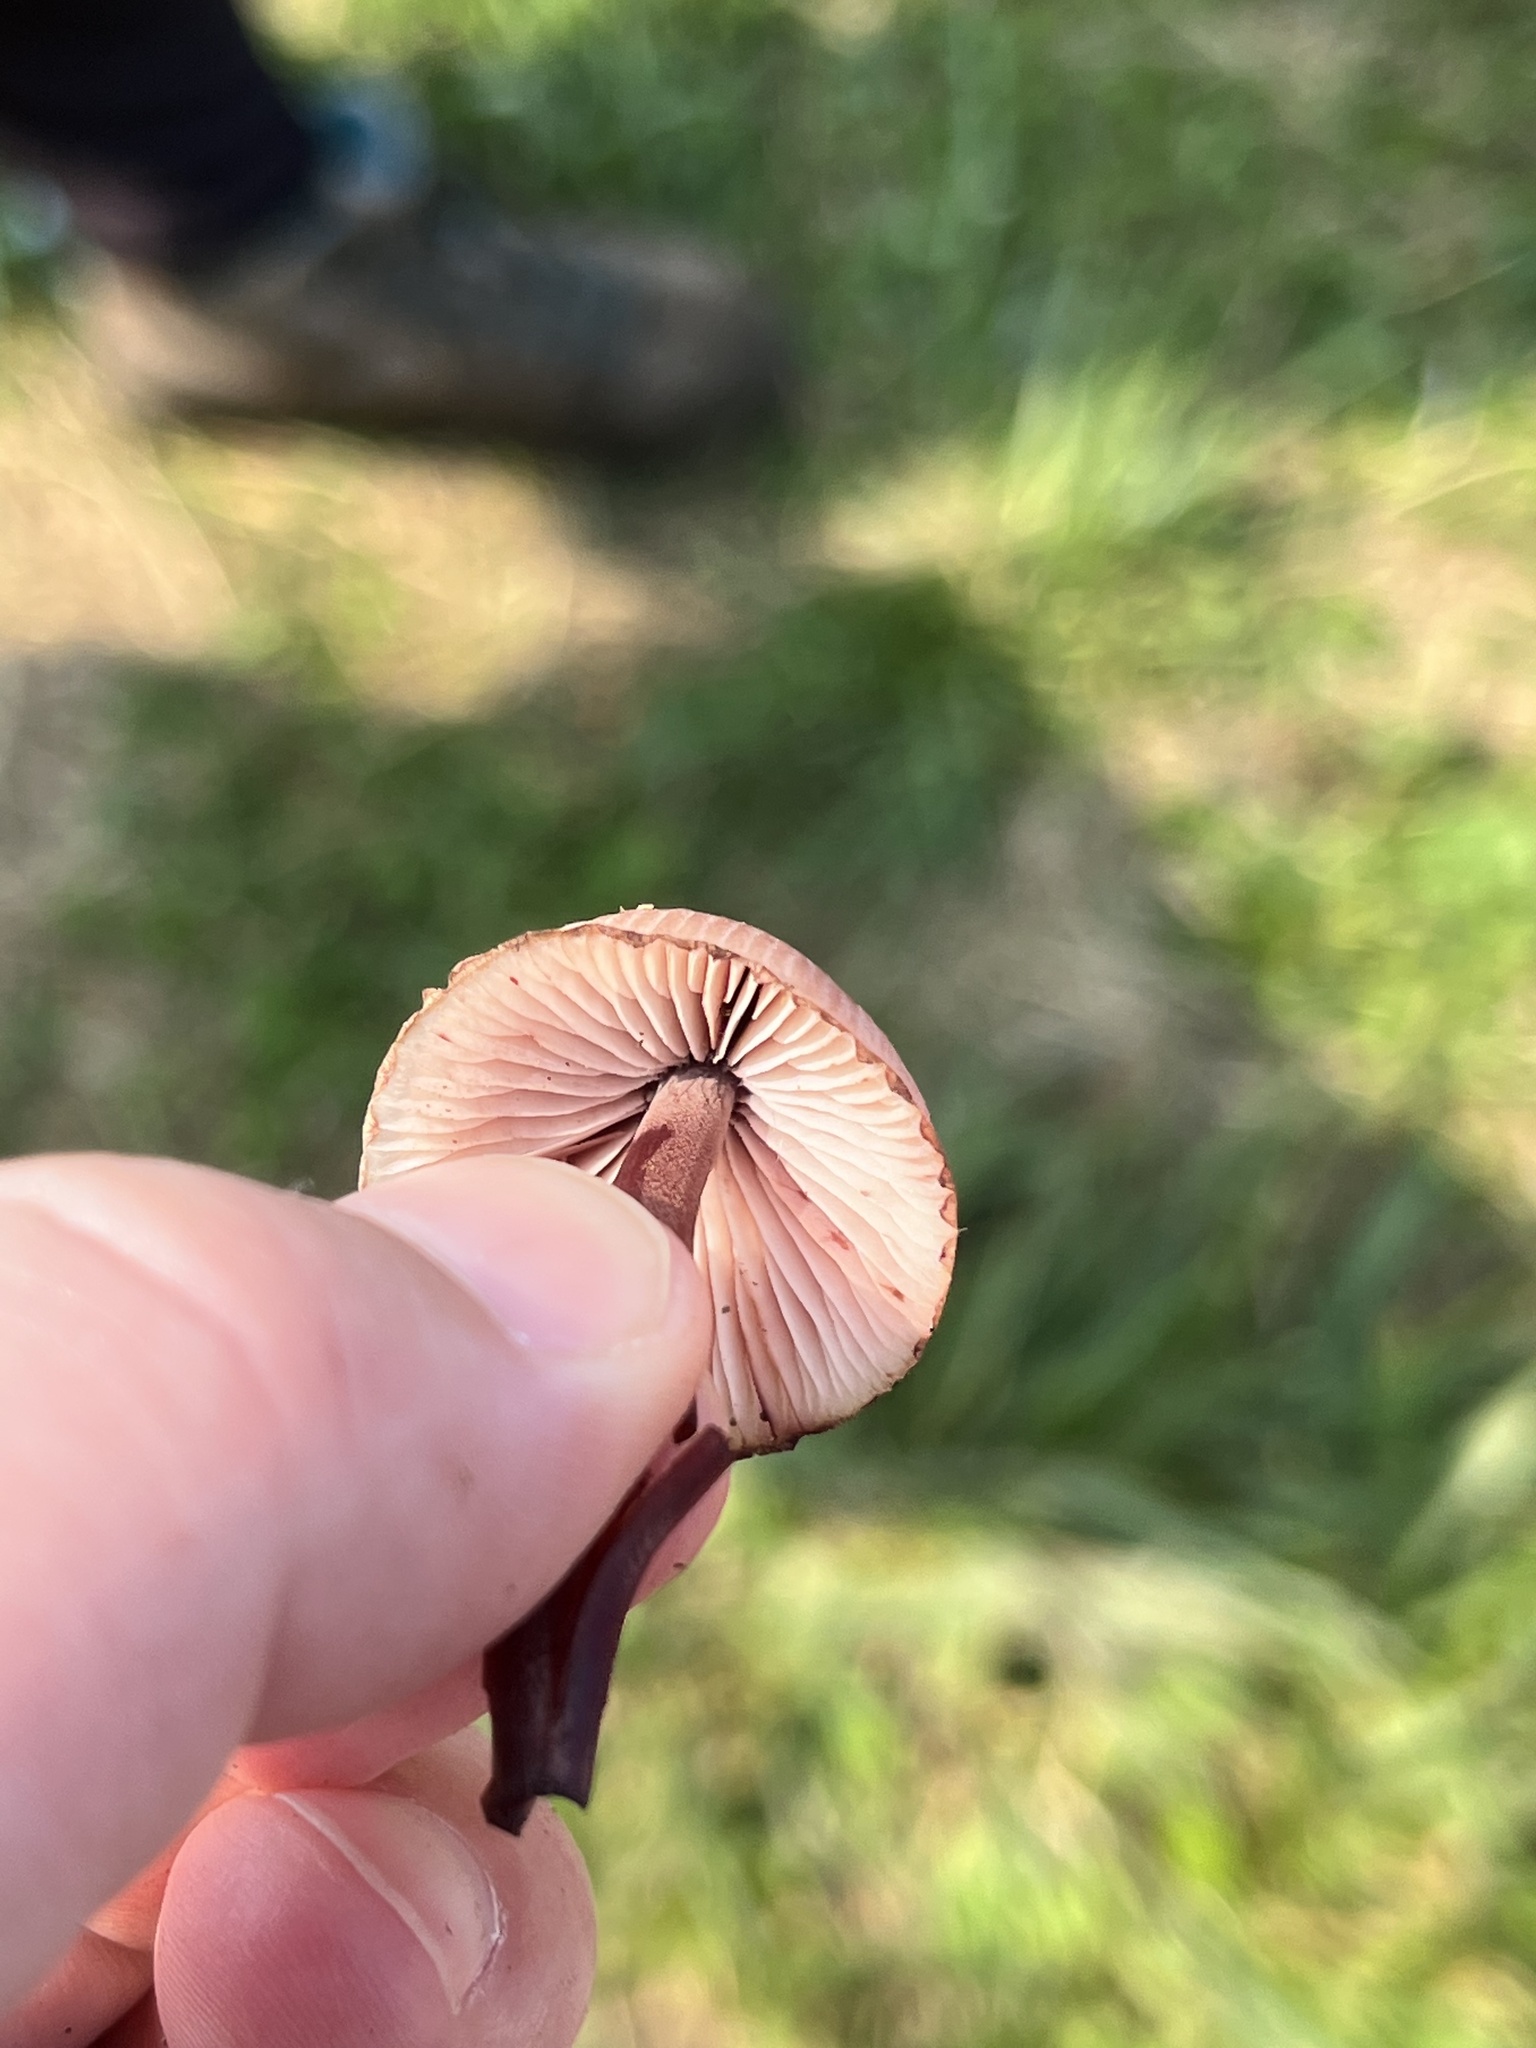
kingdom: Fungi
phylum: Basidiomycota
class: Agaricomycetes
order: Agaricales
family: Mycenaceae
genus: Mycena
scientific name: Mycena haematopus
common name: Burgundydrop bonnet
